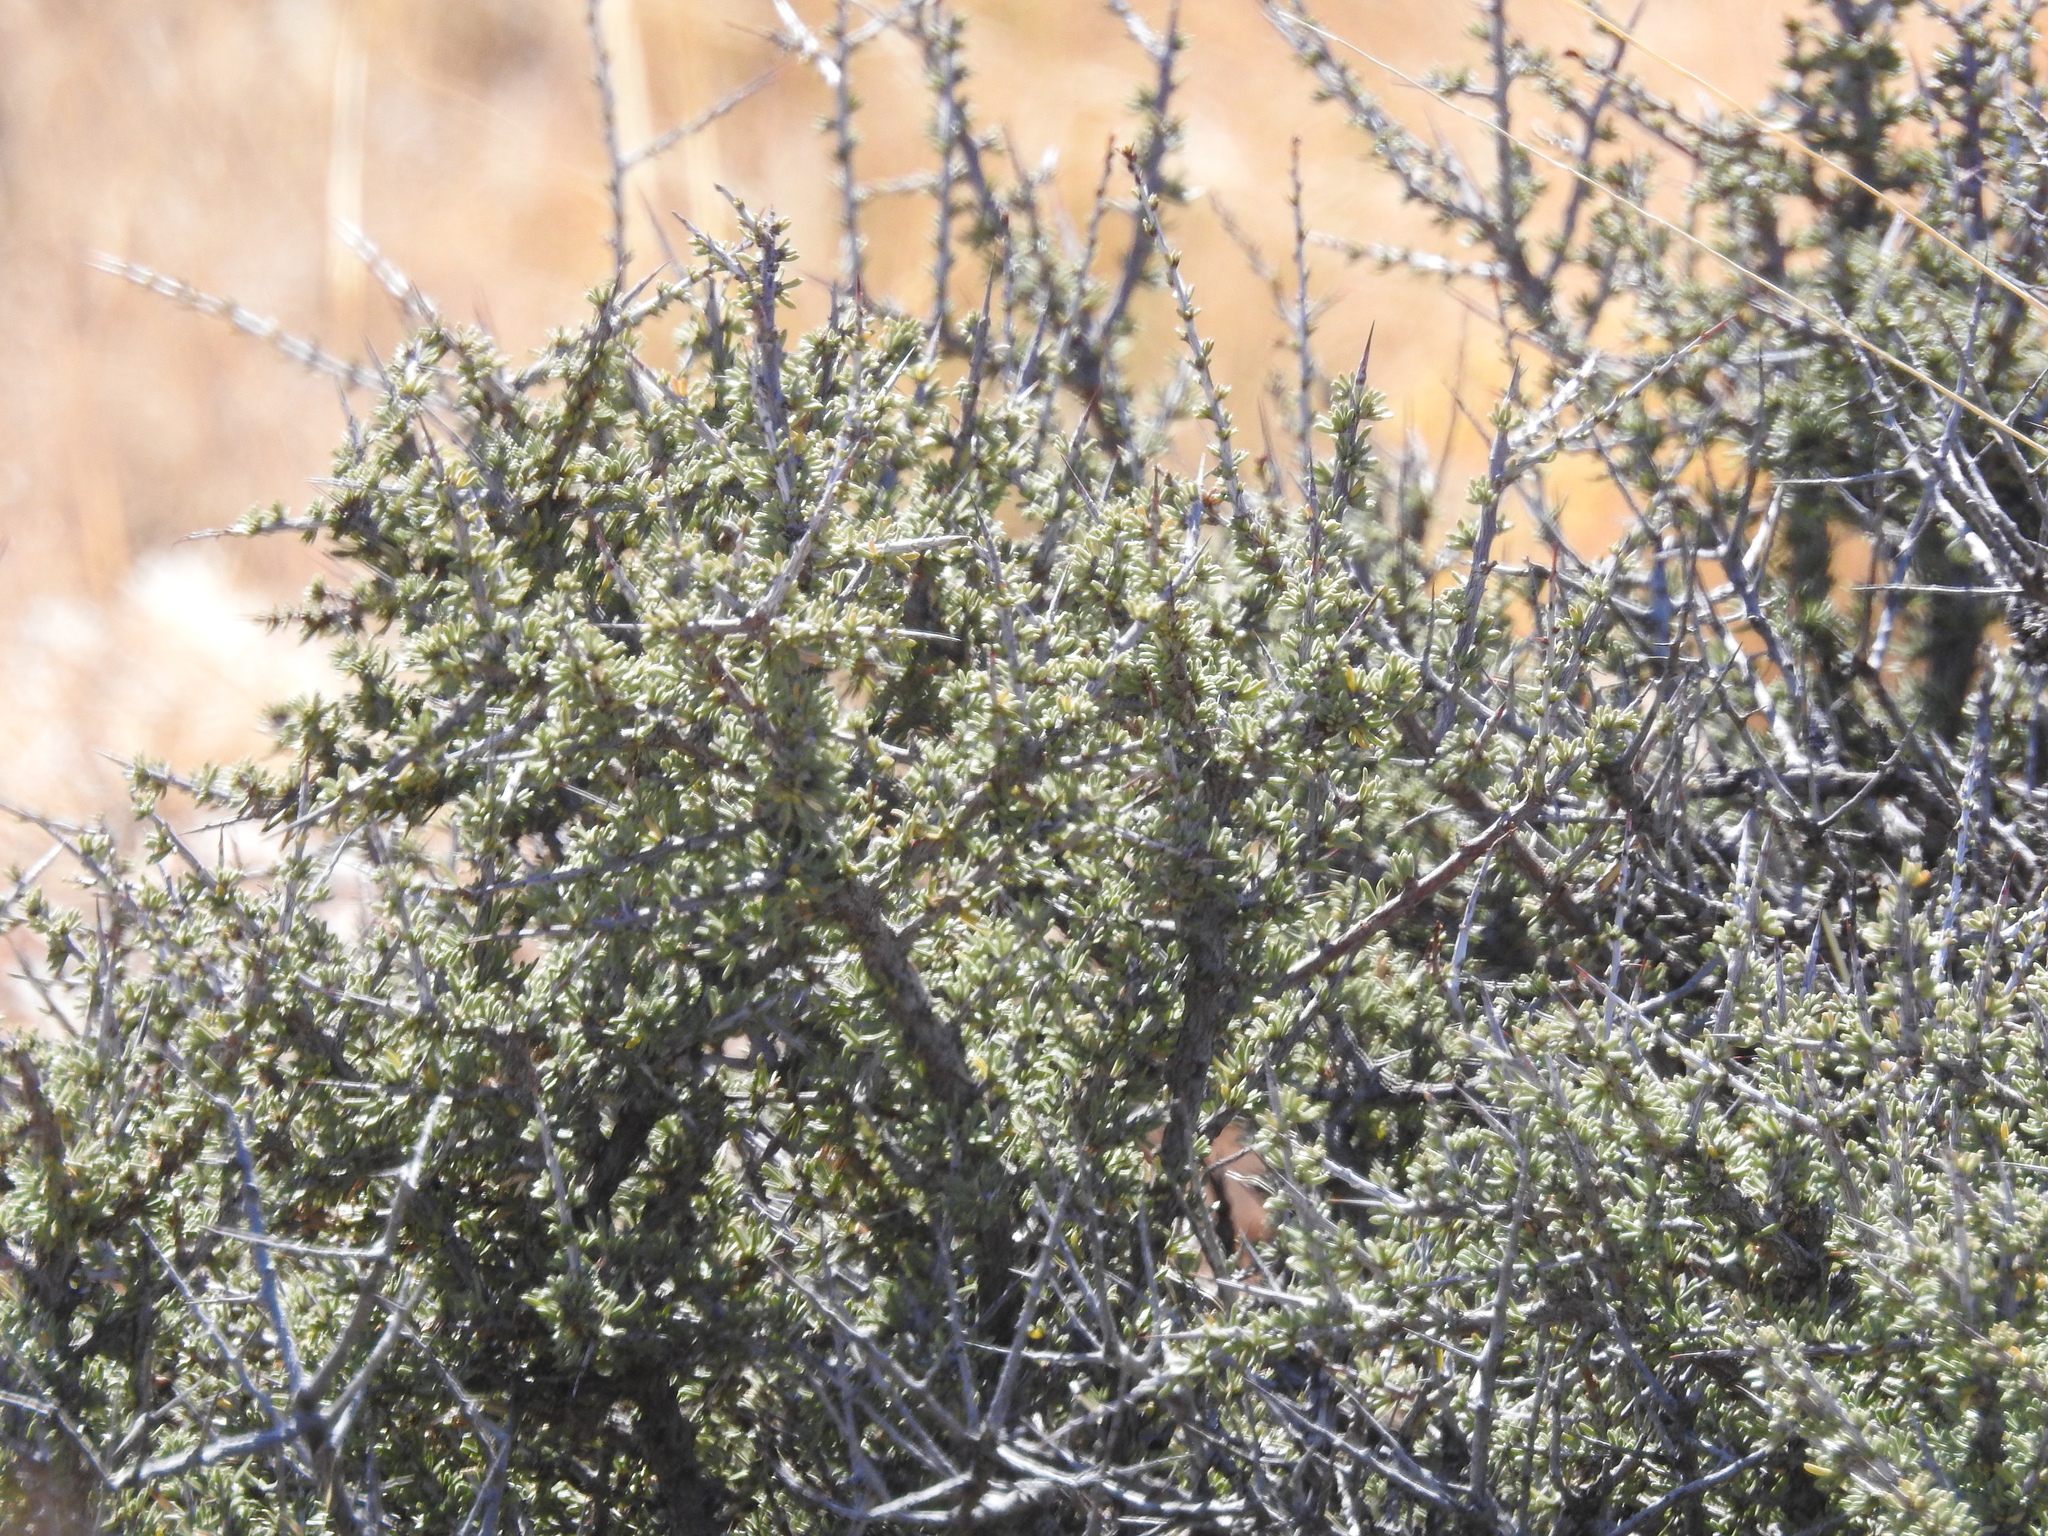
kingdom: Plantae
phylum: Tracheophyta
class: Magnoliopsida
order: Rosales
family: Rhamnaceae
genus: Condalia
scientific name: Condalia ericoides
